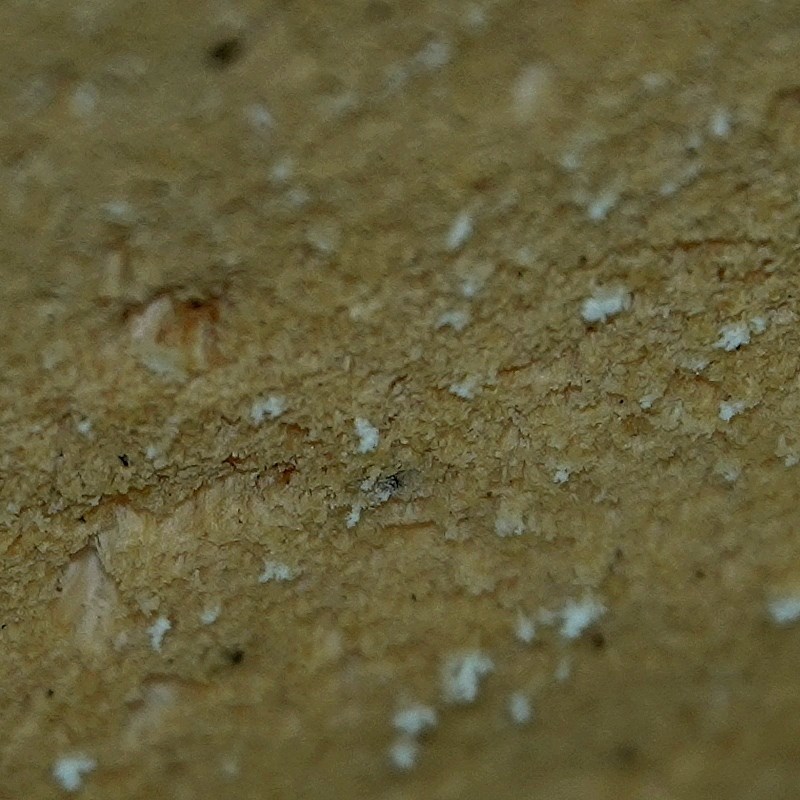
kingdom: Fungi
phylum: Basidiomycota
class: Agaricomycetes
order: Polyporales
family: Laetiporaceae
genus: Laetiporus
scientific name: Laetiporus portentosus
